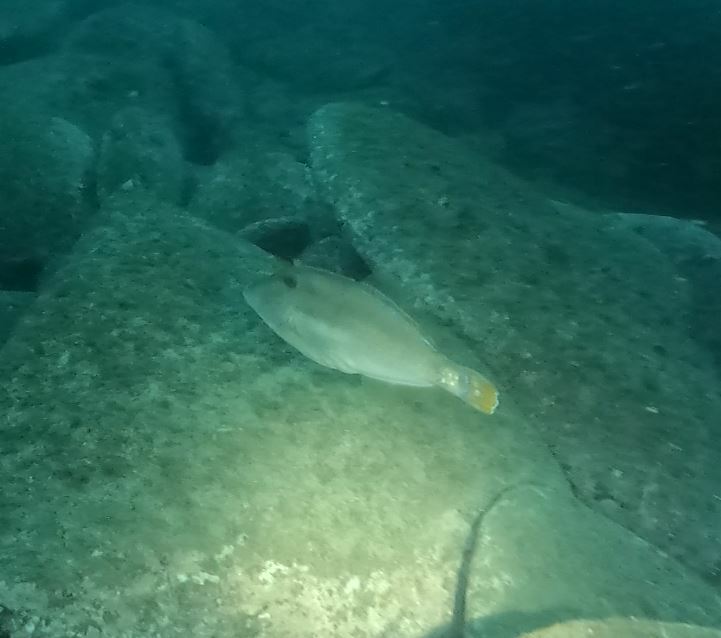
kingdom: Animalia
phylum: Chordata
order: Tetraodontiformes
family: Monacanthidae
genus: Meuschenia
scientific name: Meuschenia trachylepis
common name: Yellowfin leatherjacket
